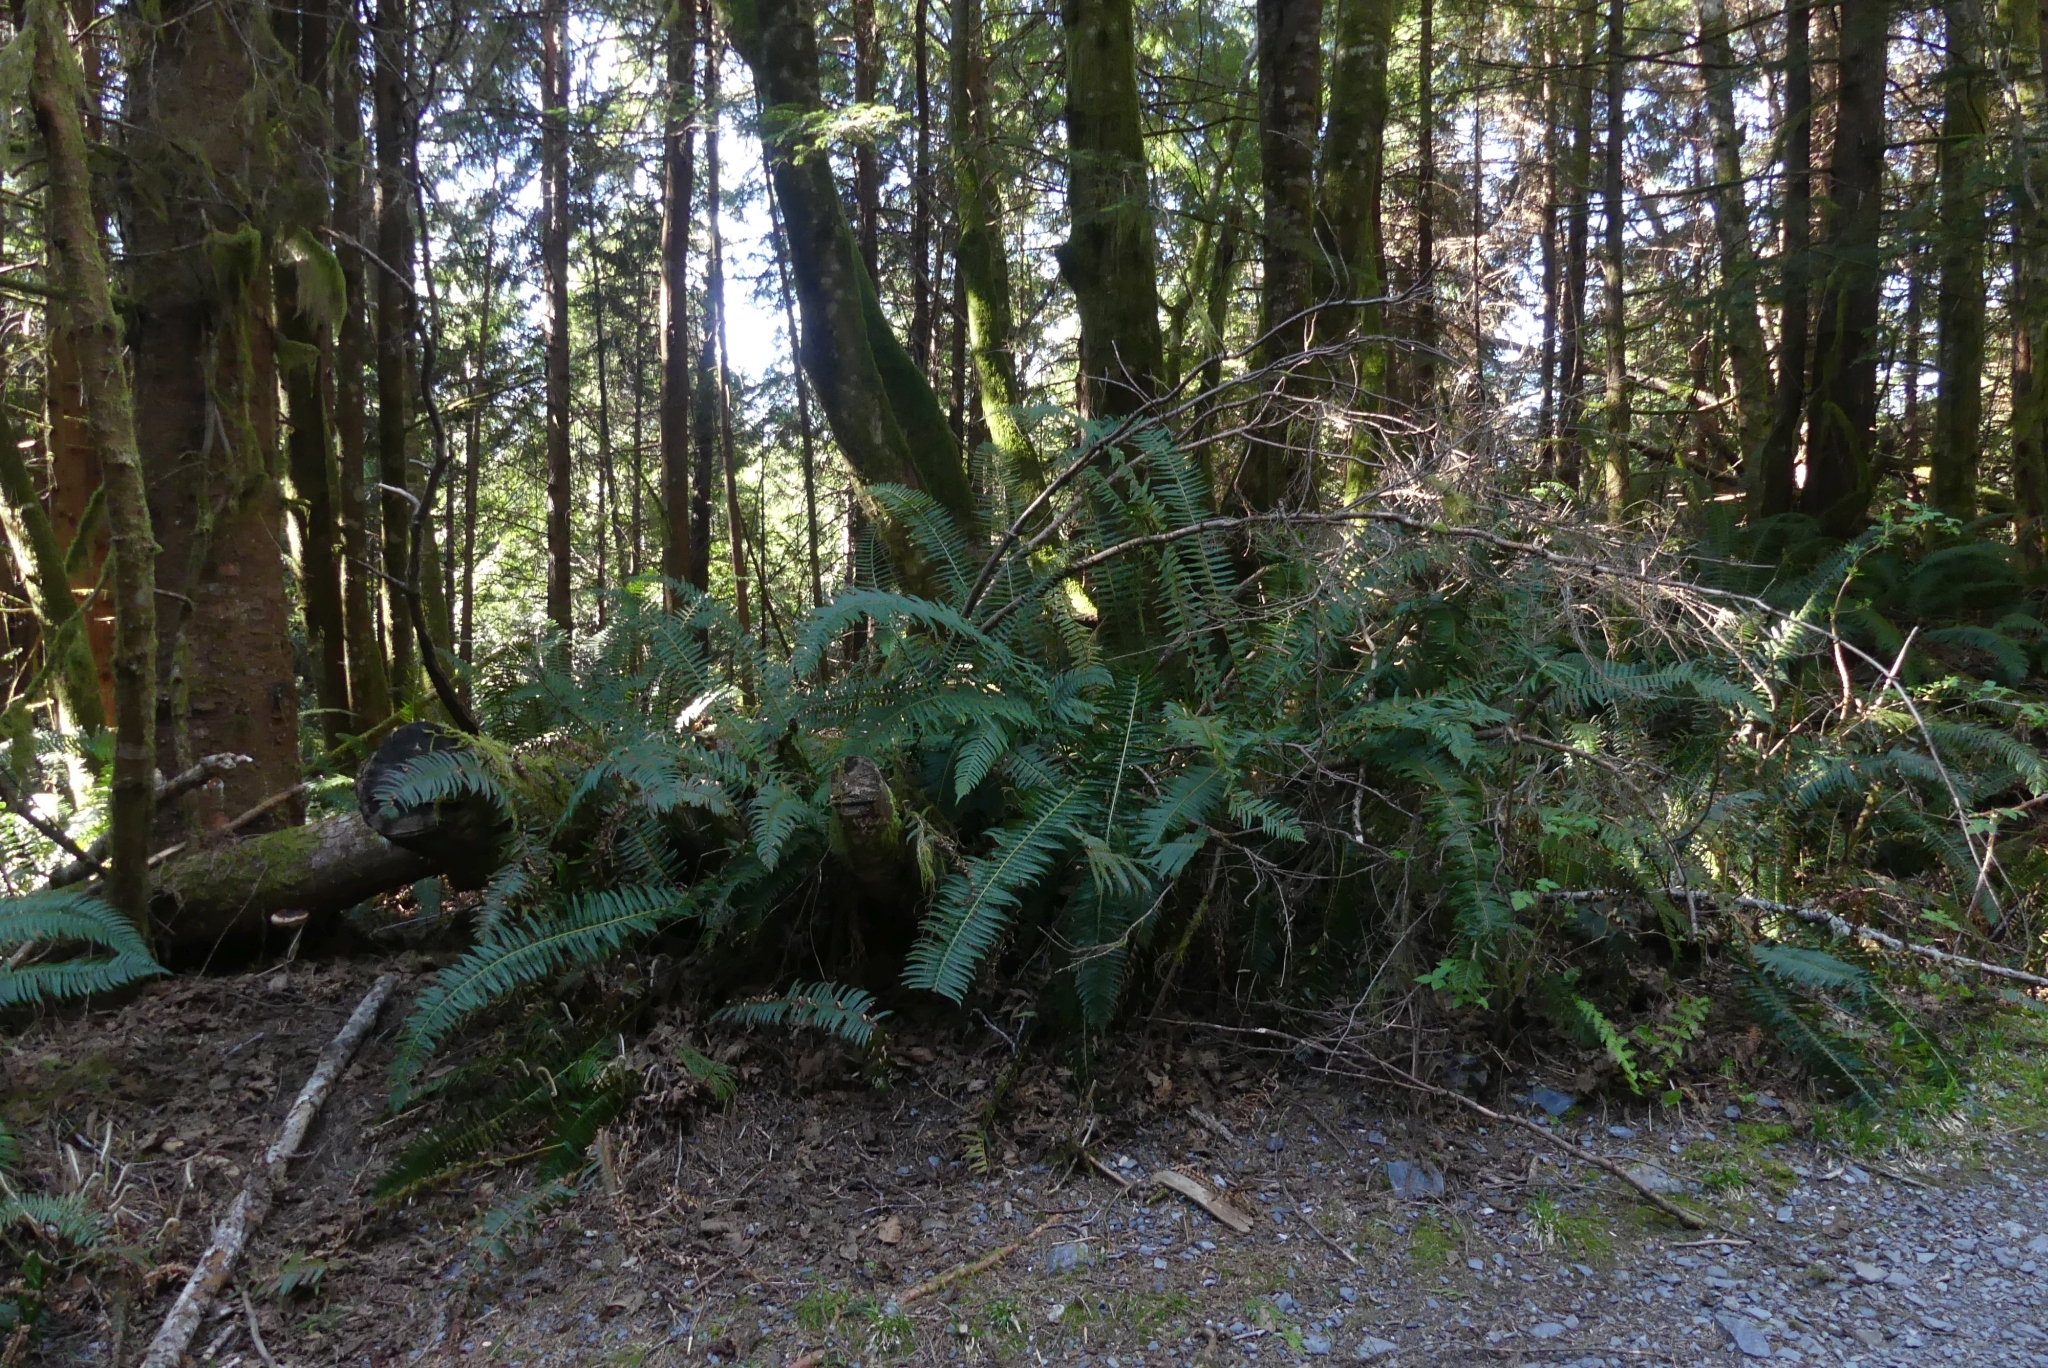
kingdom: Plantae
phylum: Tracheophyta
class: Polypodiopsida
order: Polypodiales
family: Dryopteridaceae
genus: Polystichum
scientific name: Polystichum munitum
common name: Western sword-fern
